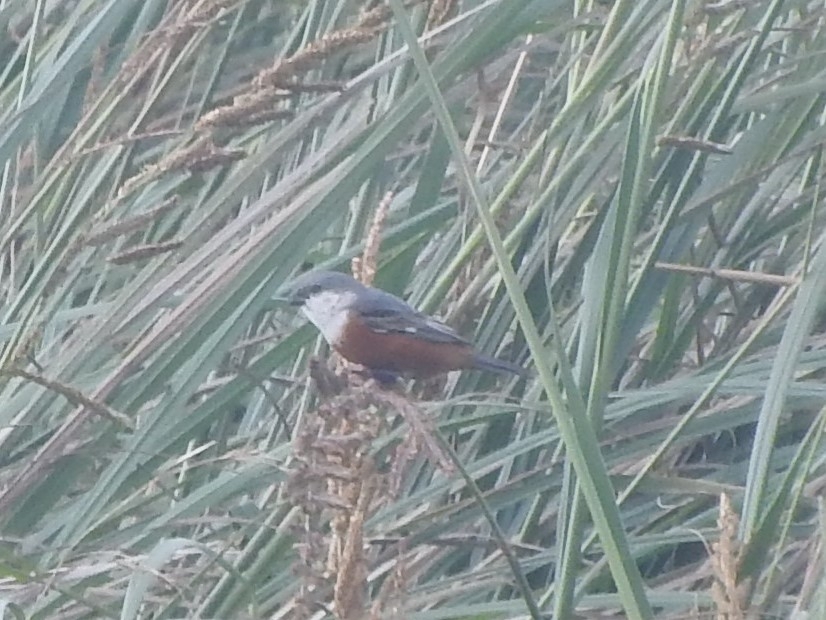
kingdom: Animalia
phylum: Chordata
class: Aves
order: Passeriformes
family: Thraupidae
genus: Sporophila
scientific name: Sporophila palustris
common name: Marsh seedeater
